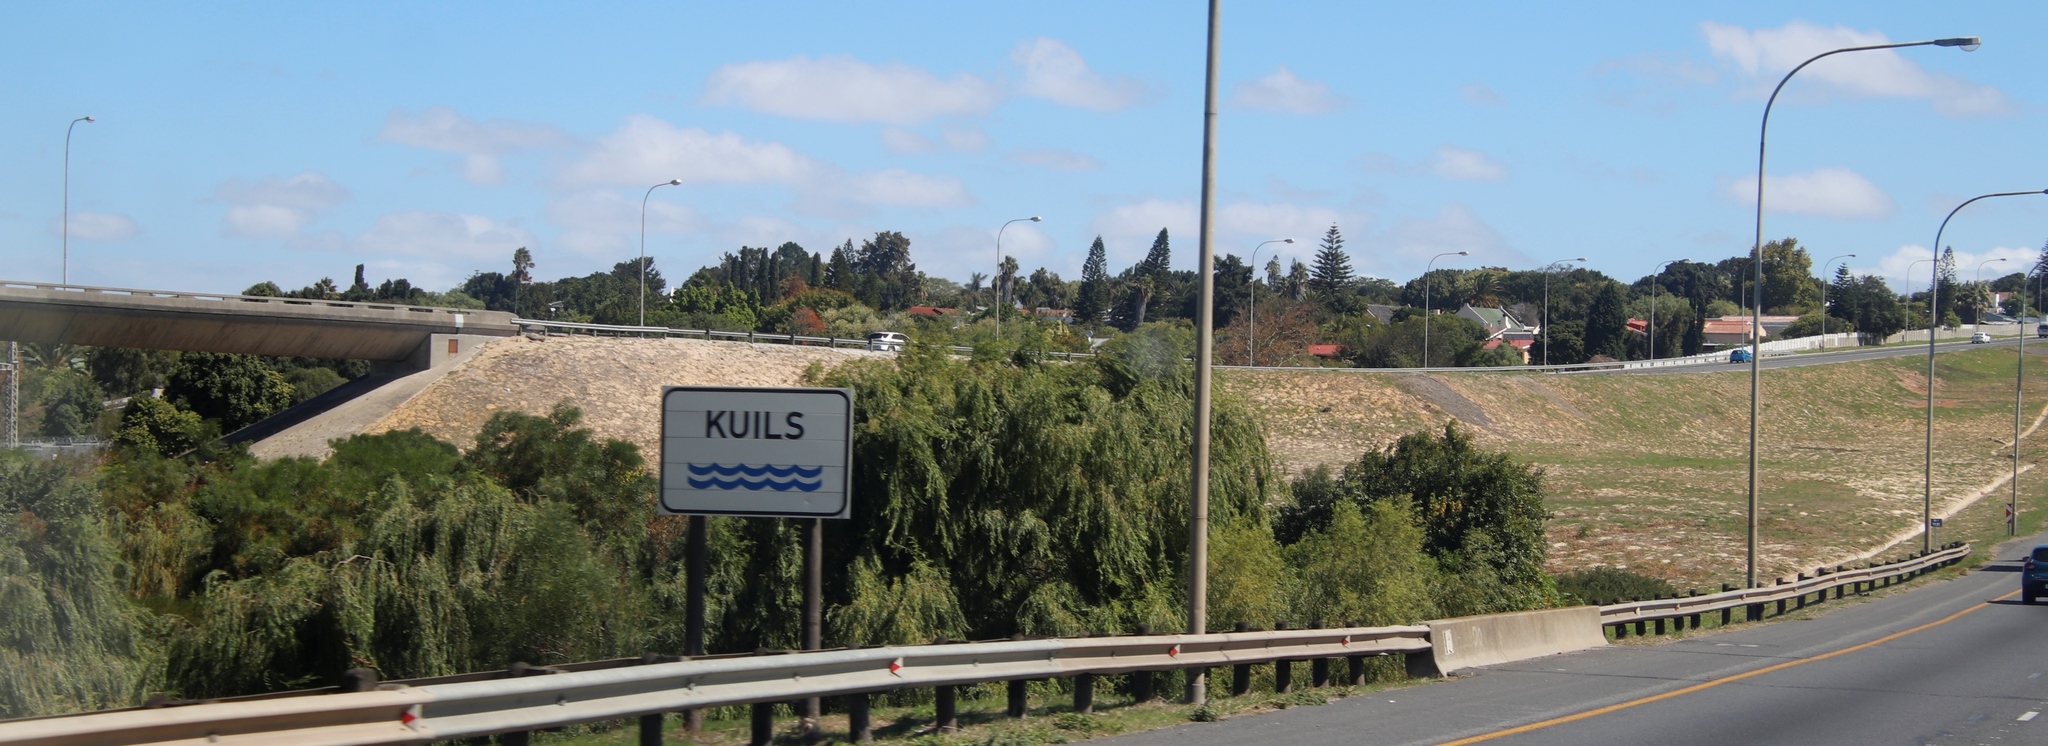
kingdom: Plantae
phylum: Tracheophyta
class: Magnoliopsida
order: Malpighiales
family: Salicaceae
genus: Salix
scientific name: Salix babylonica
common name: Weeping willow
